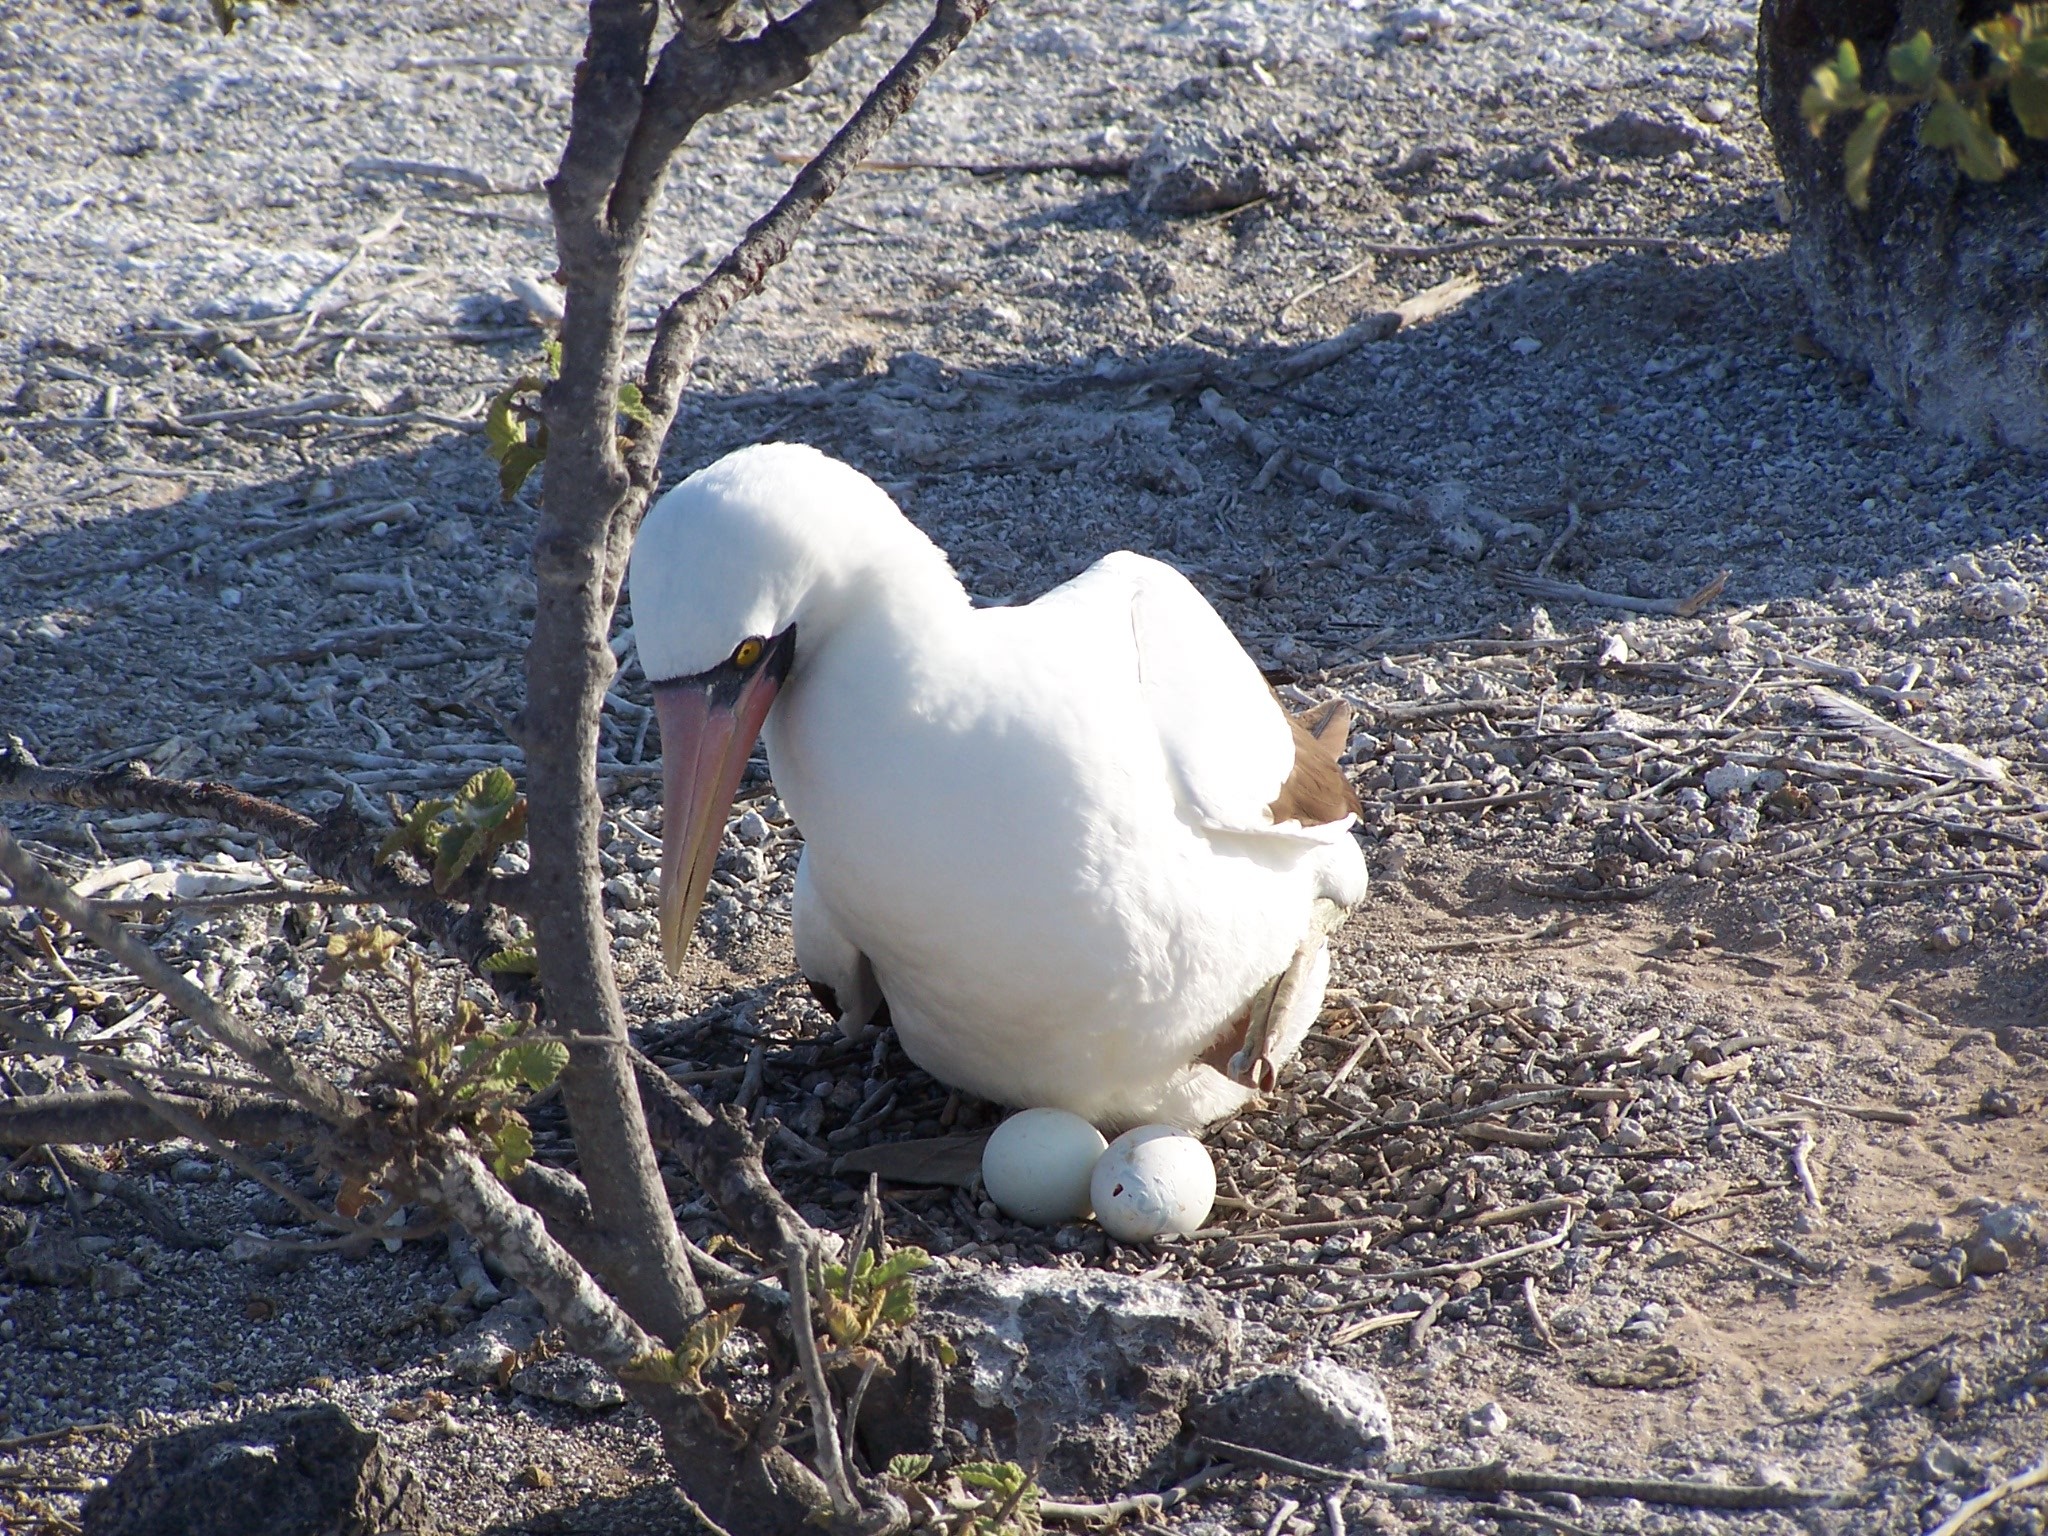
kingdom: Animalia
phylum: Chordata
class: Aves
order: Suliformes
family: Sulidae
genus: Sula
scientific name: Sula granti
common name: Nazca booby
